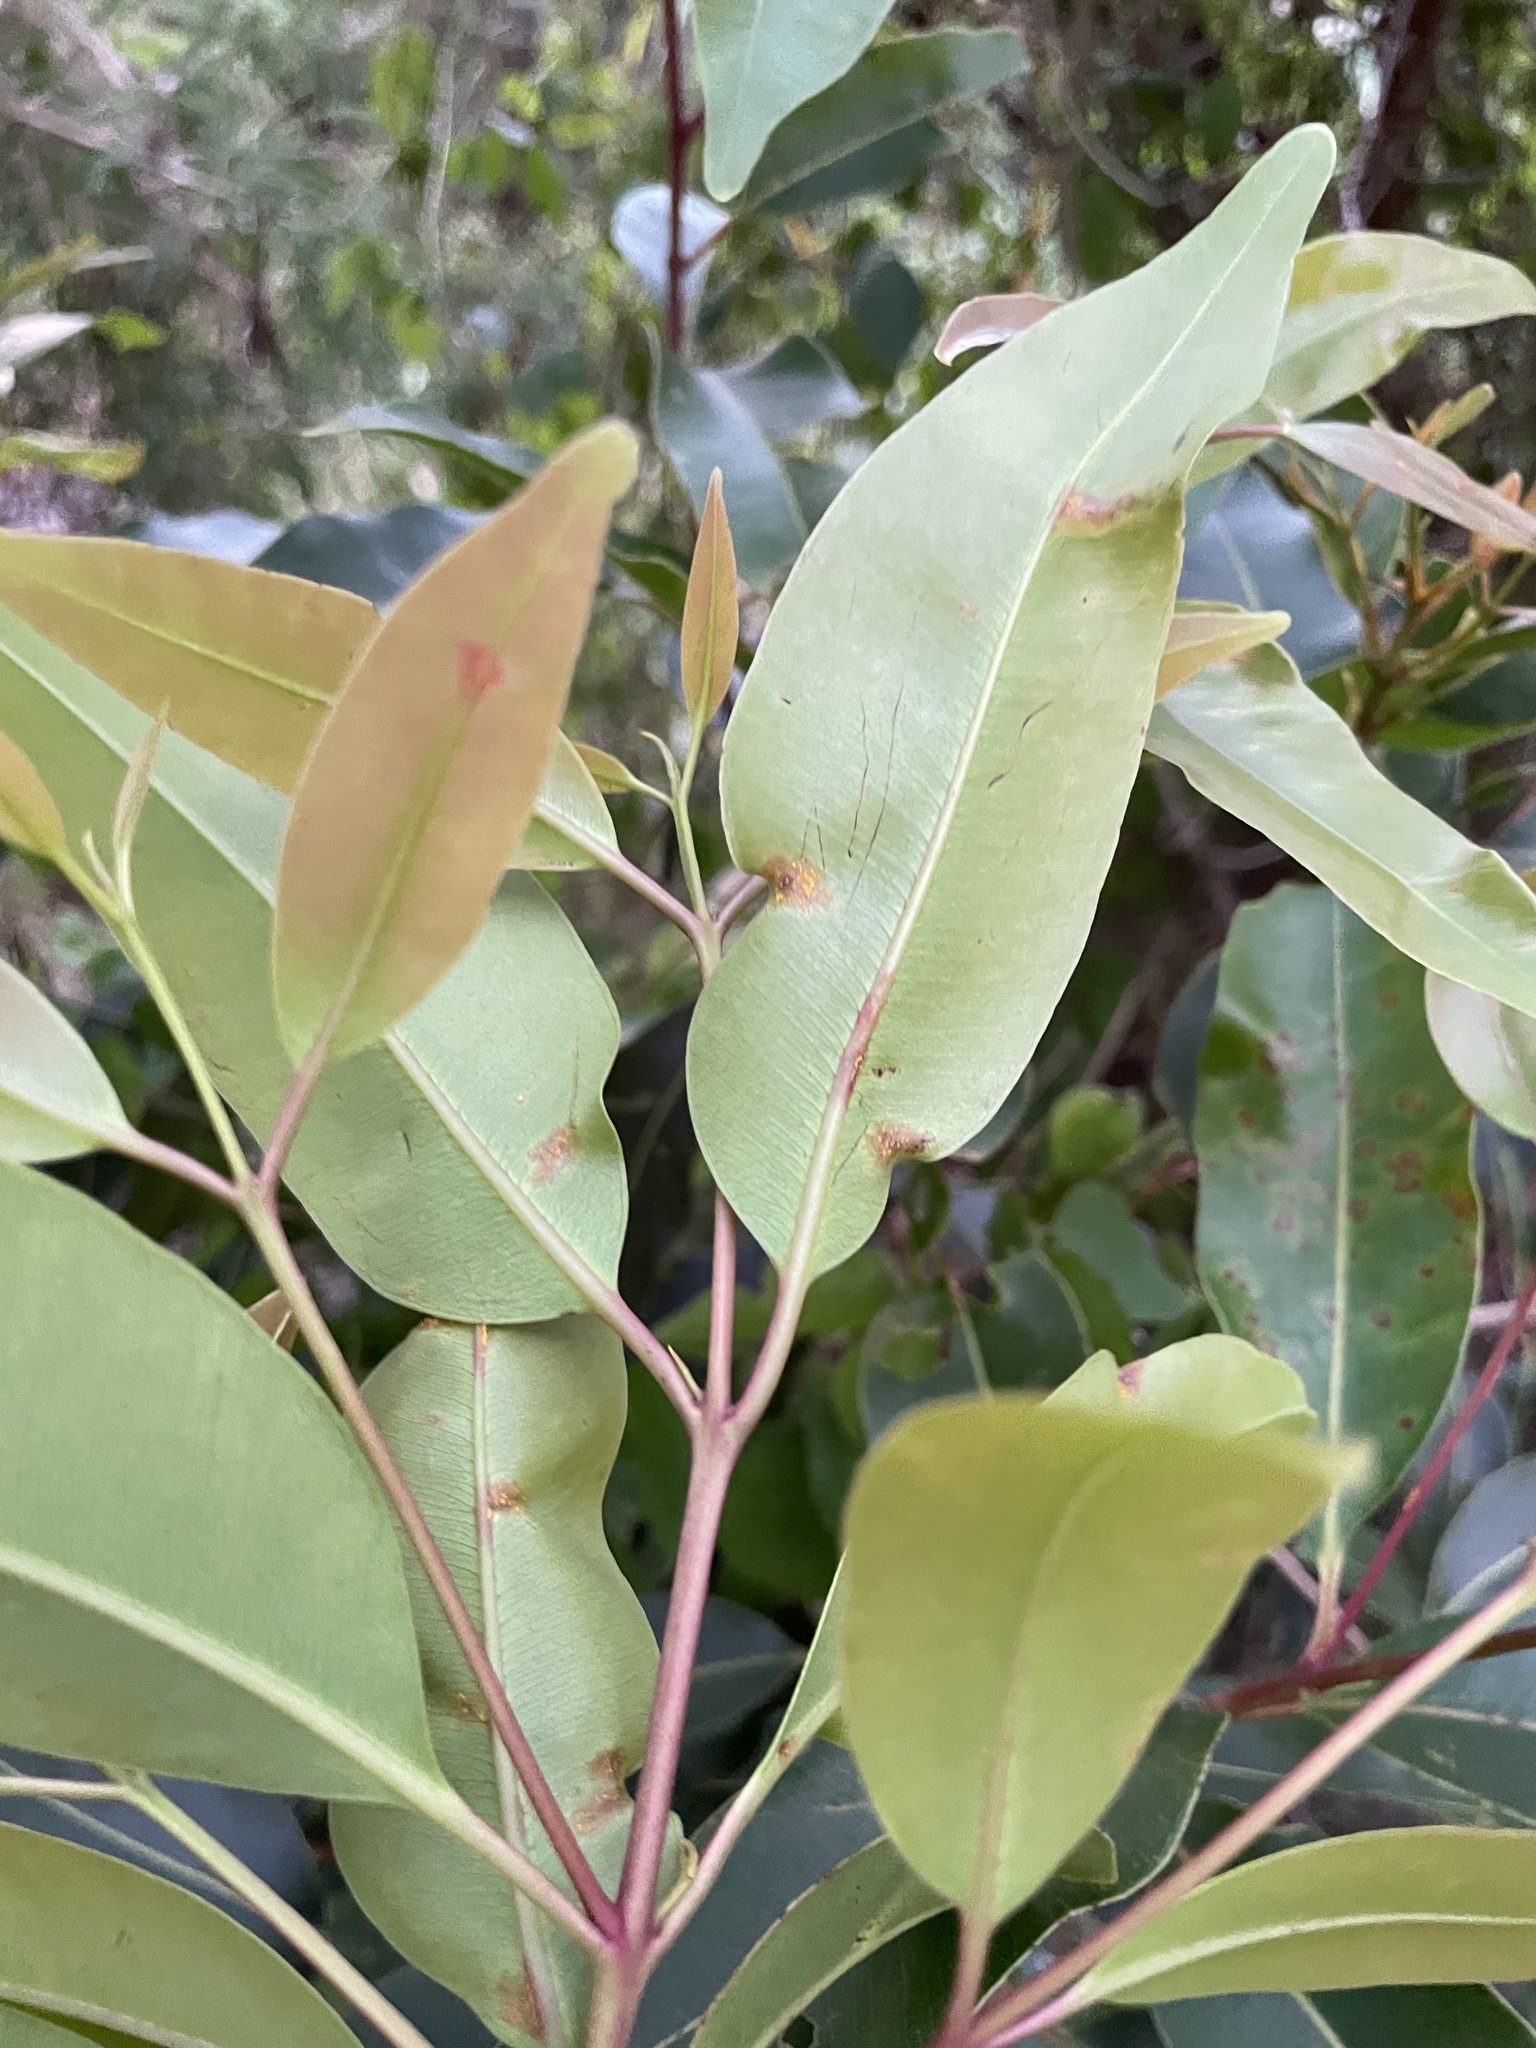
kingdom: Plantae
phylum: Tracheophyta
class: Magnoliopsida
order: Myrtales
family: Myrtaceae
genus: Syzygium
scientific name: Syzygium cumini
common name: Java plum
